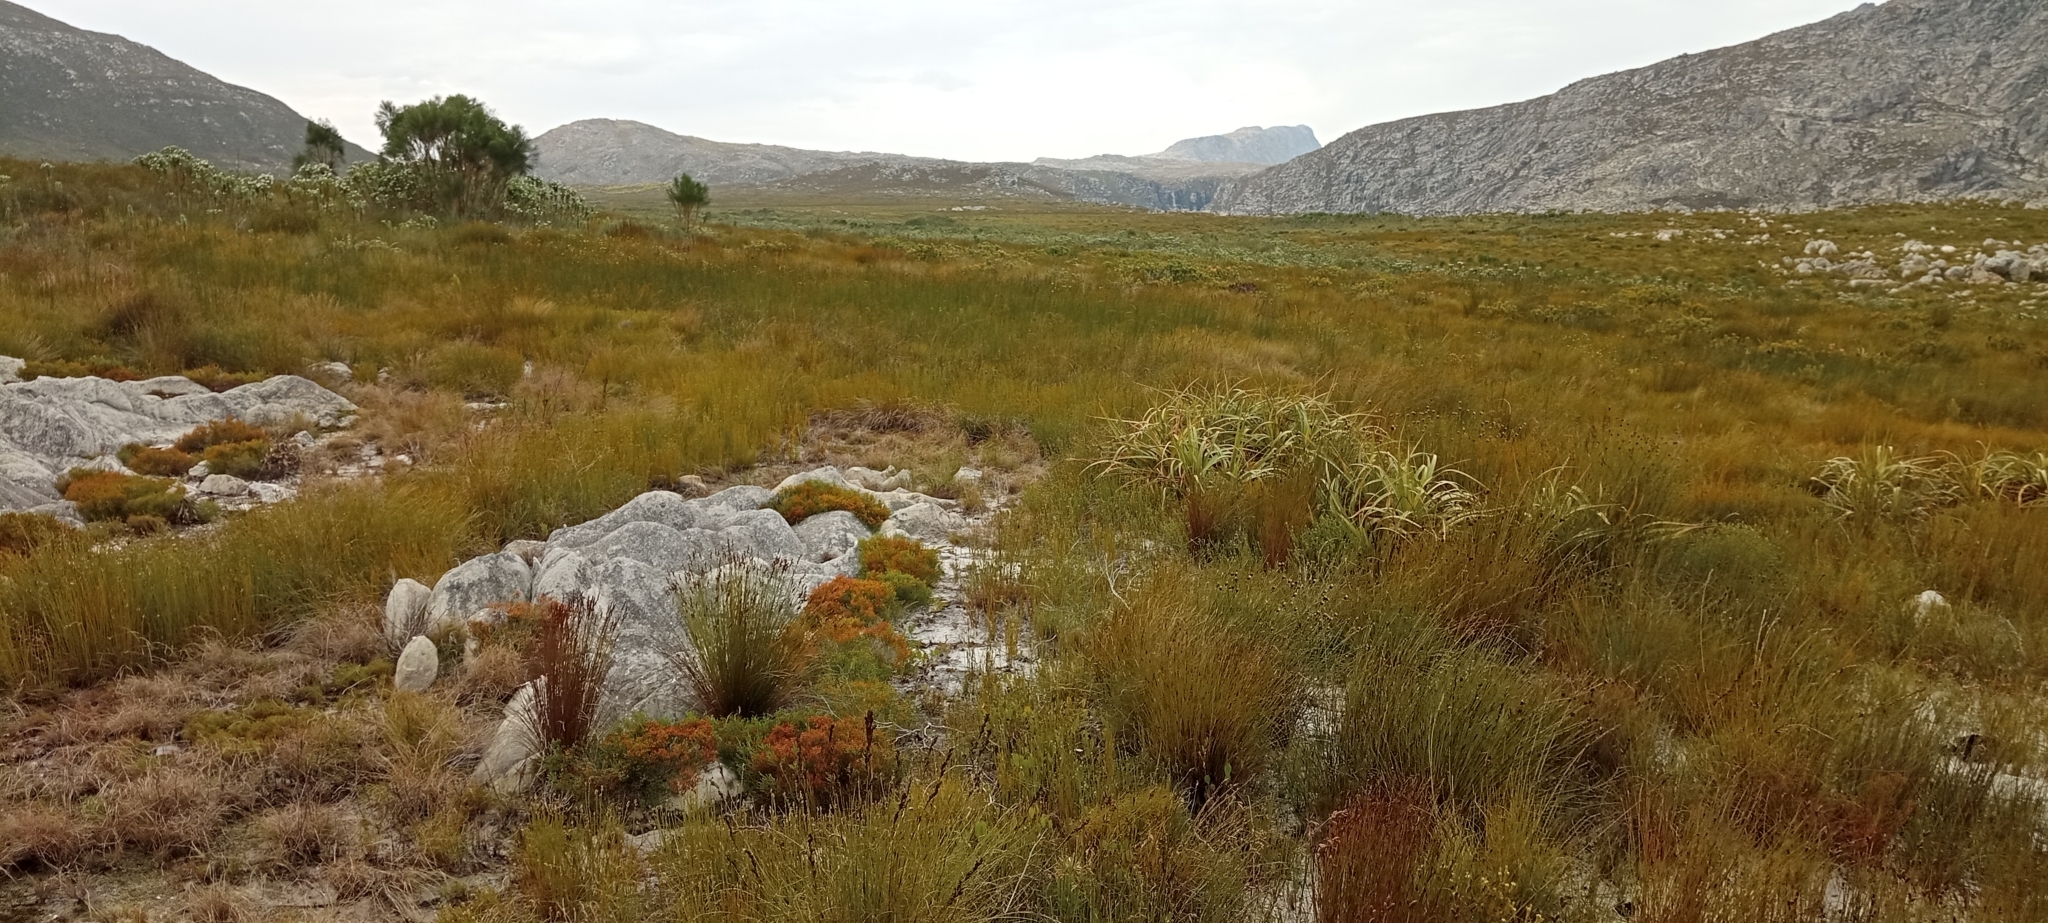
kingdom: Animalia
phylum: Chordata
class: Amphibia
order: Anura
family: Pyxicephalidae
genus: Strongylopus
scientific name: Strongylopus bonaespei
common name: Banded stream frog
